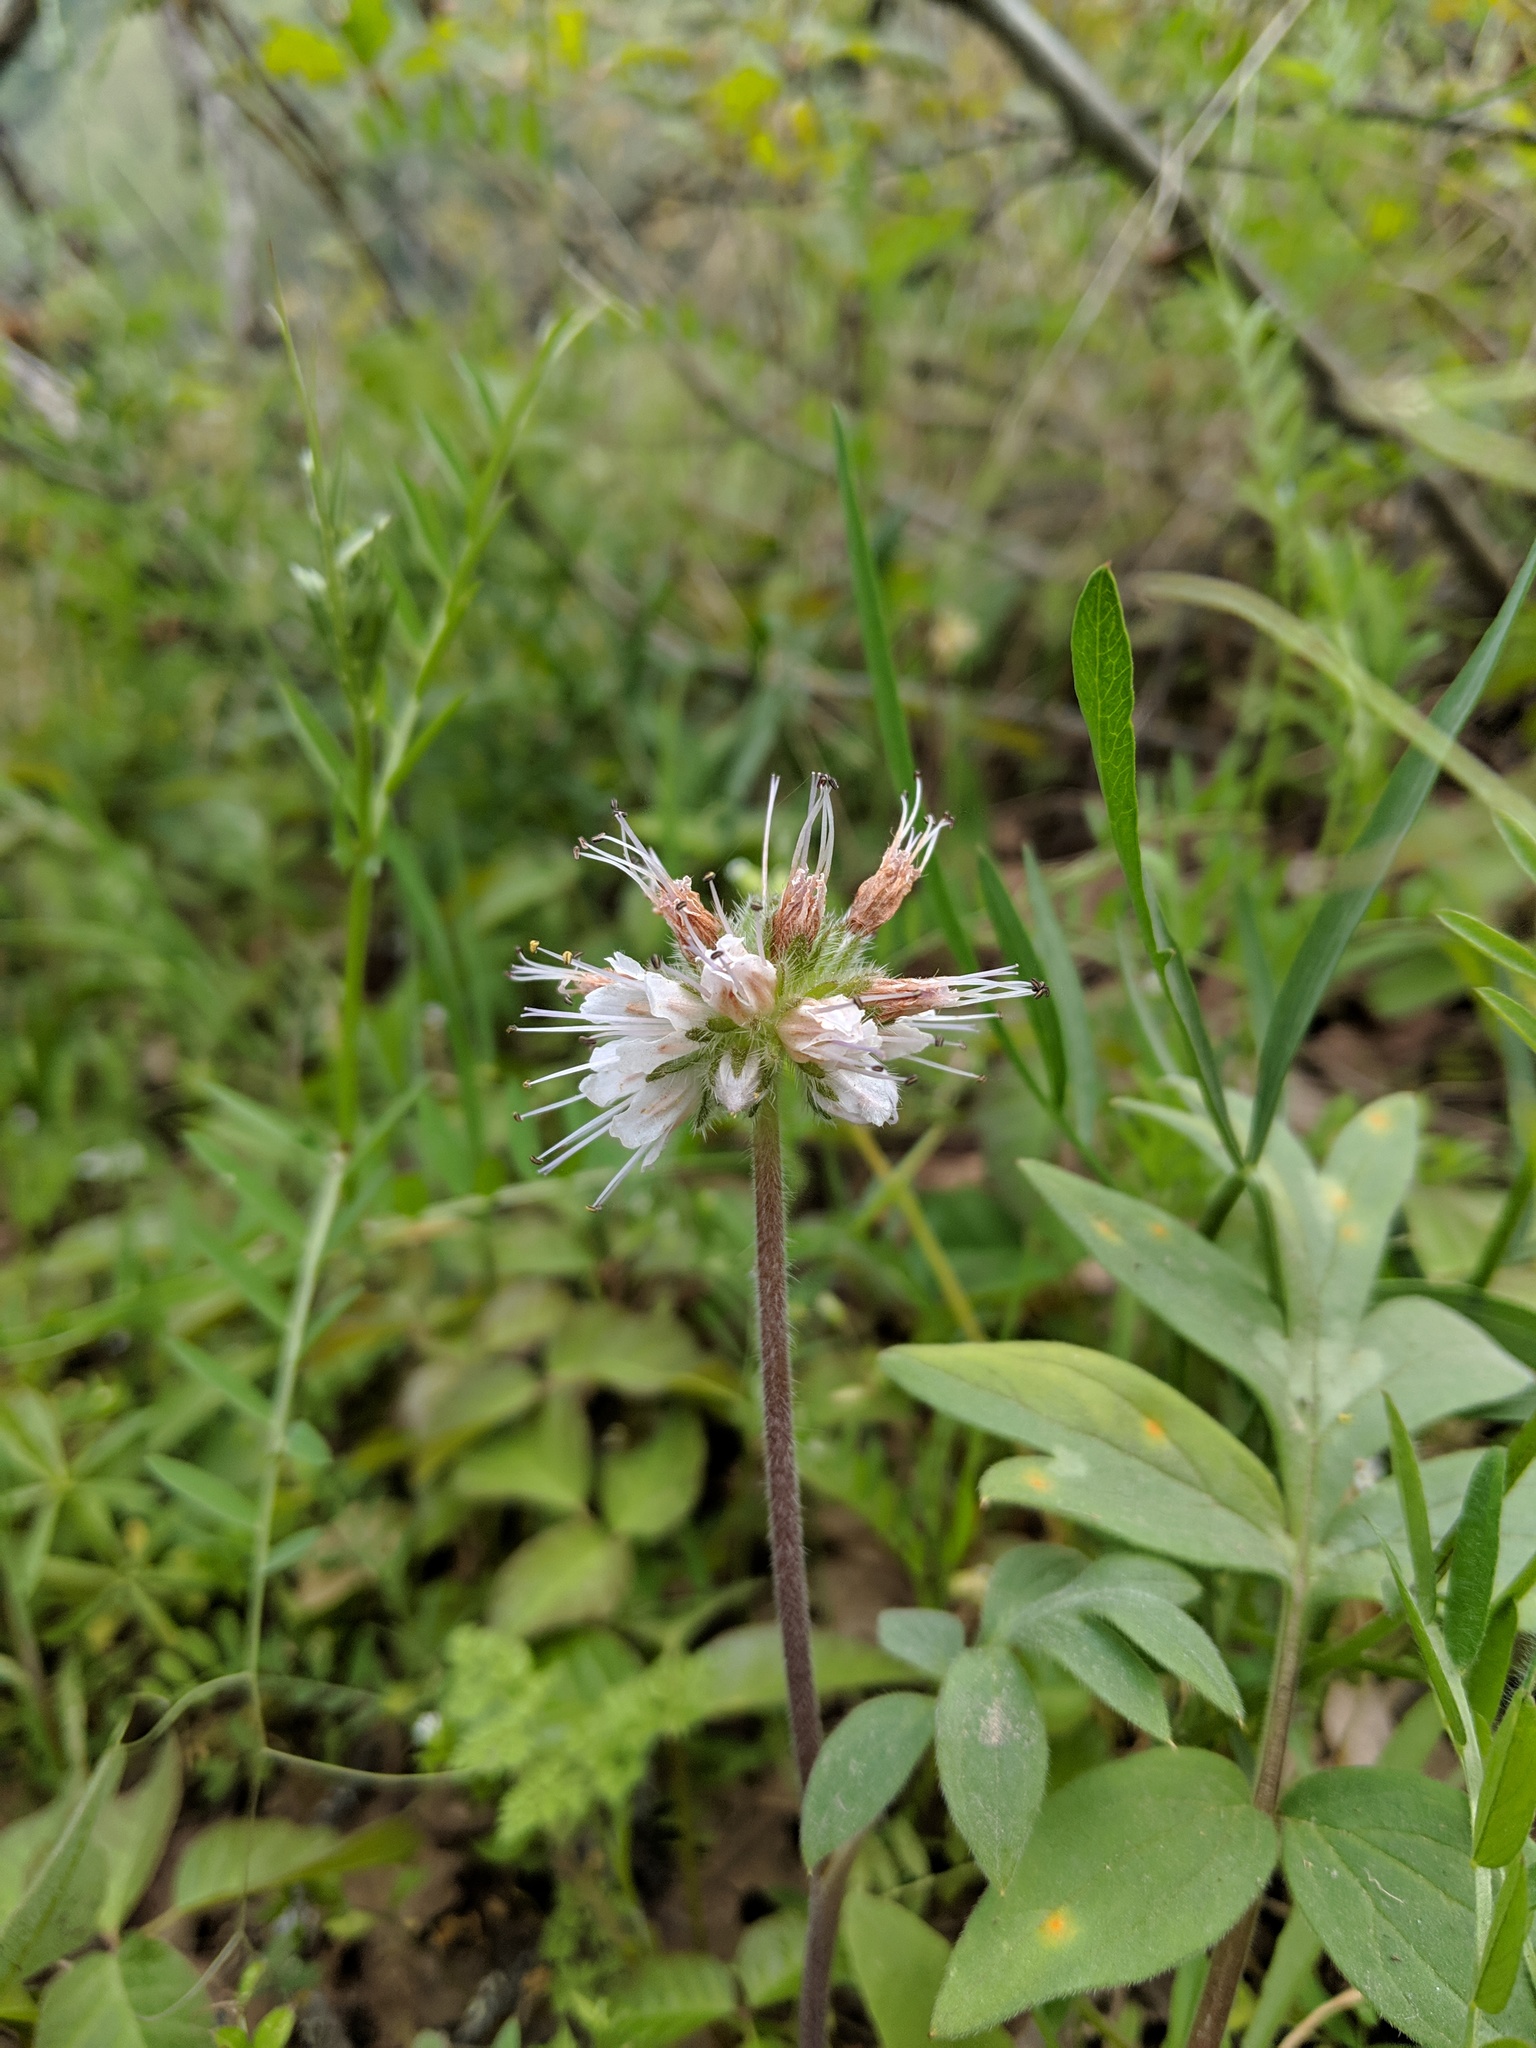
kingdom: Plantae
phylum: Tracheophyta
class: Magnoliopsida
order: Boraginales
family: Hydrophyllaceae
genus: Hydrophyllum
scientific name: Hydrophyllum capitatum
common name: Woollen-breeches
